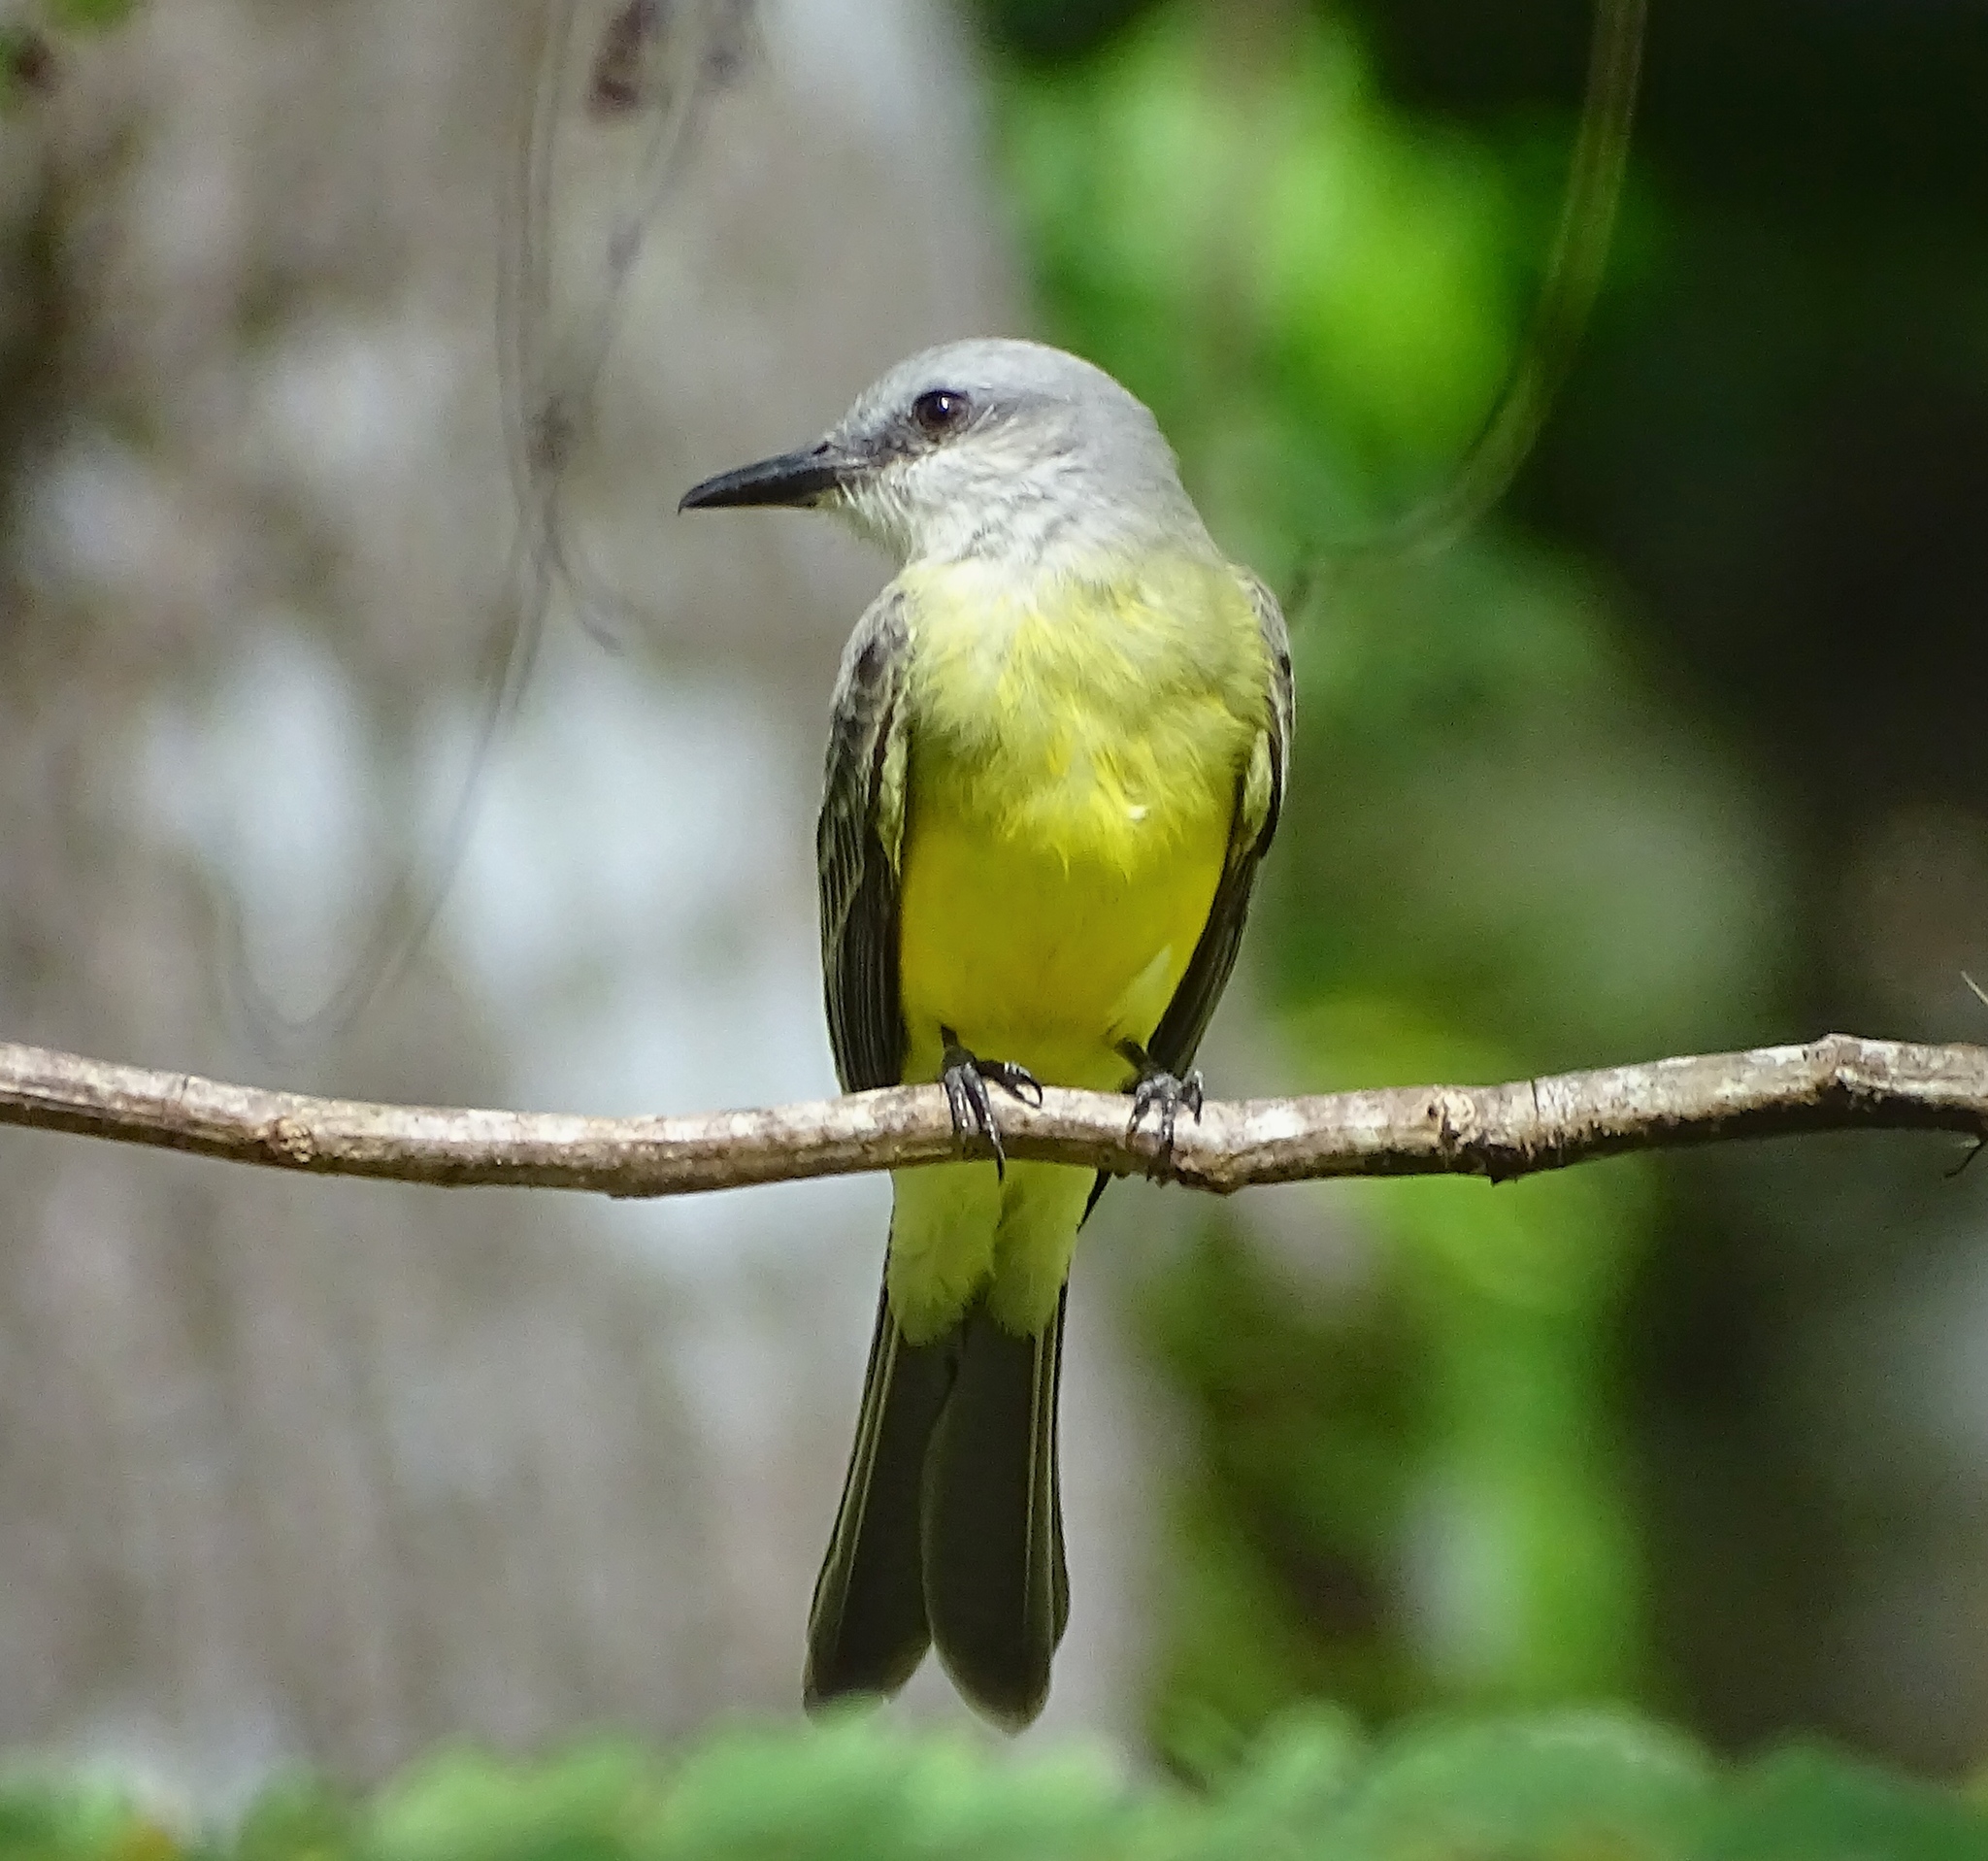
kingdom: Animalia
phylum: Chordata
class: Aves
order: Passeriformes
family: Tyrannidae
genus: Tyrannus
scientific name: Tyrannus melancholicus
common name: Tropical kingbird
